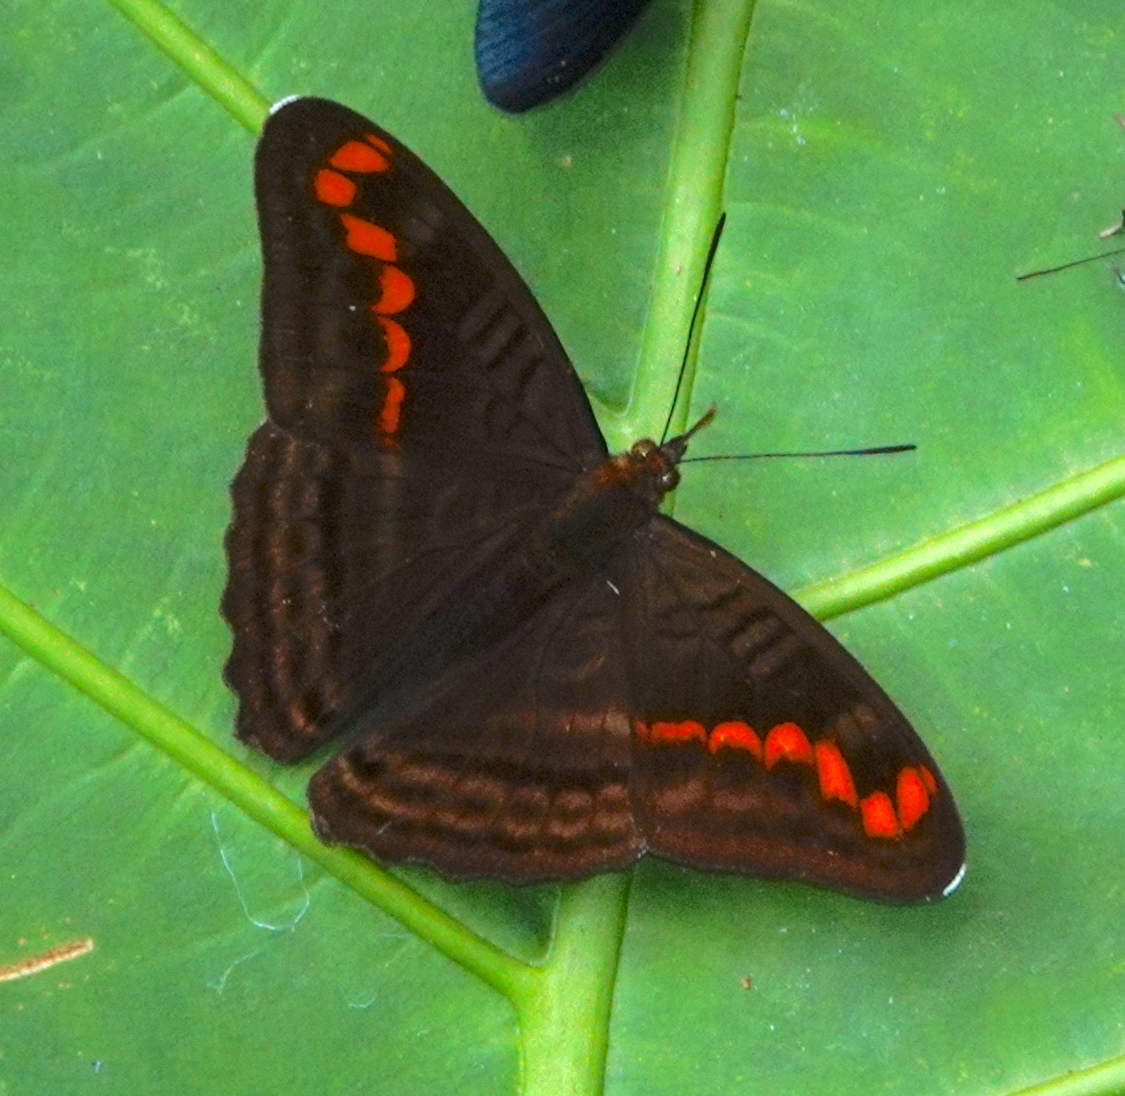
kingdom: Animalia
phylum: Arthropoda
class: Insecta
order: Lepidoptera
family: Nymphalidae
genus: Limenitis
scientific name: Limenitis levona
